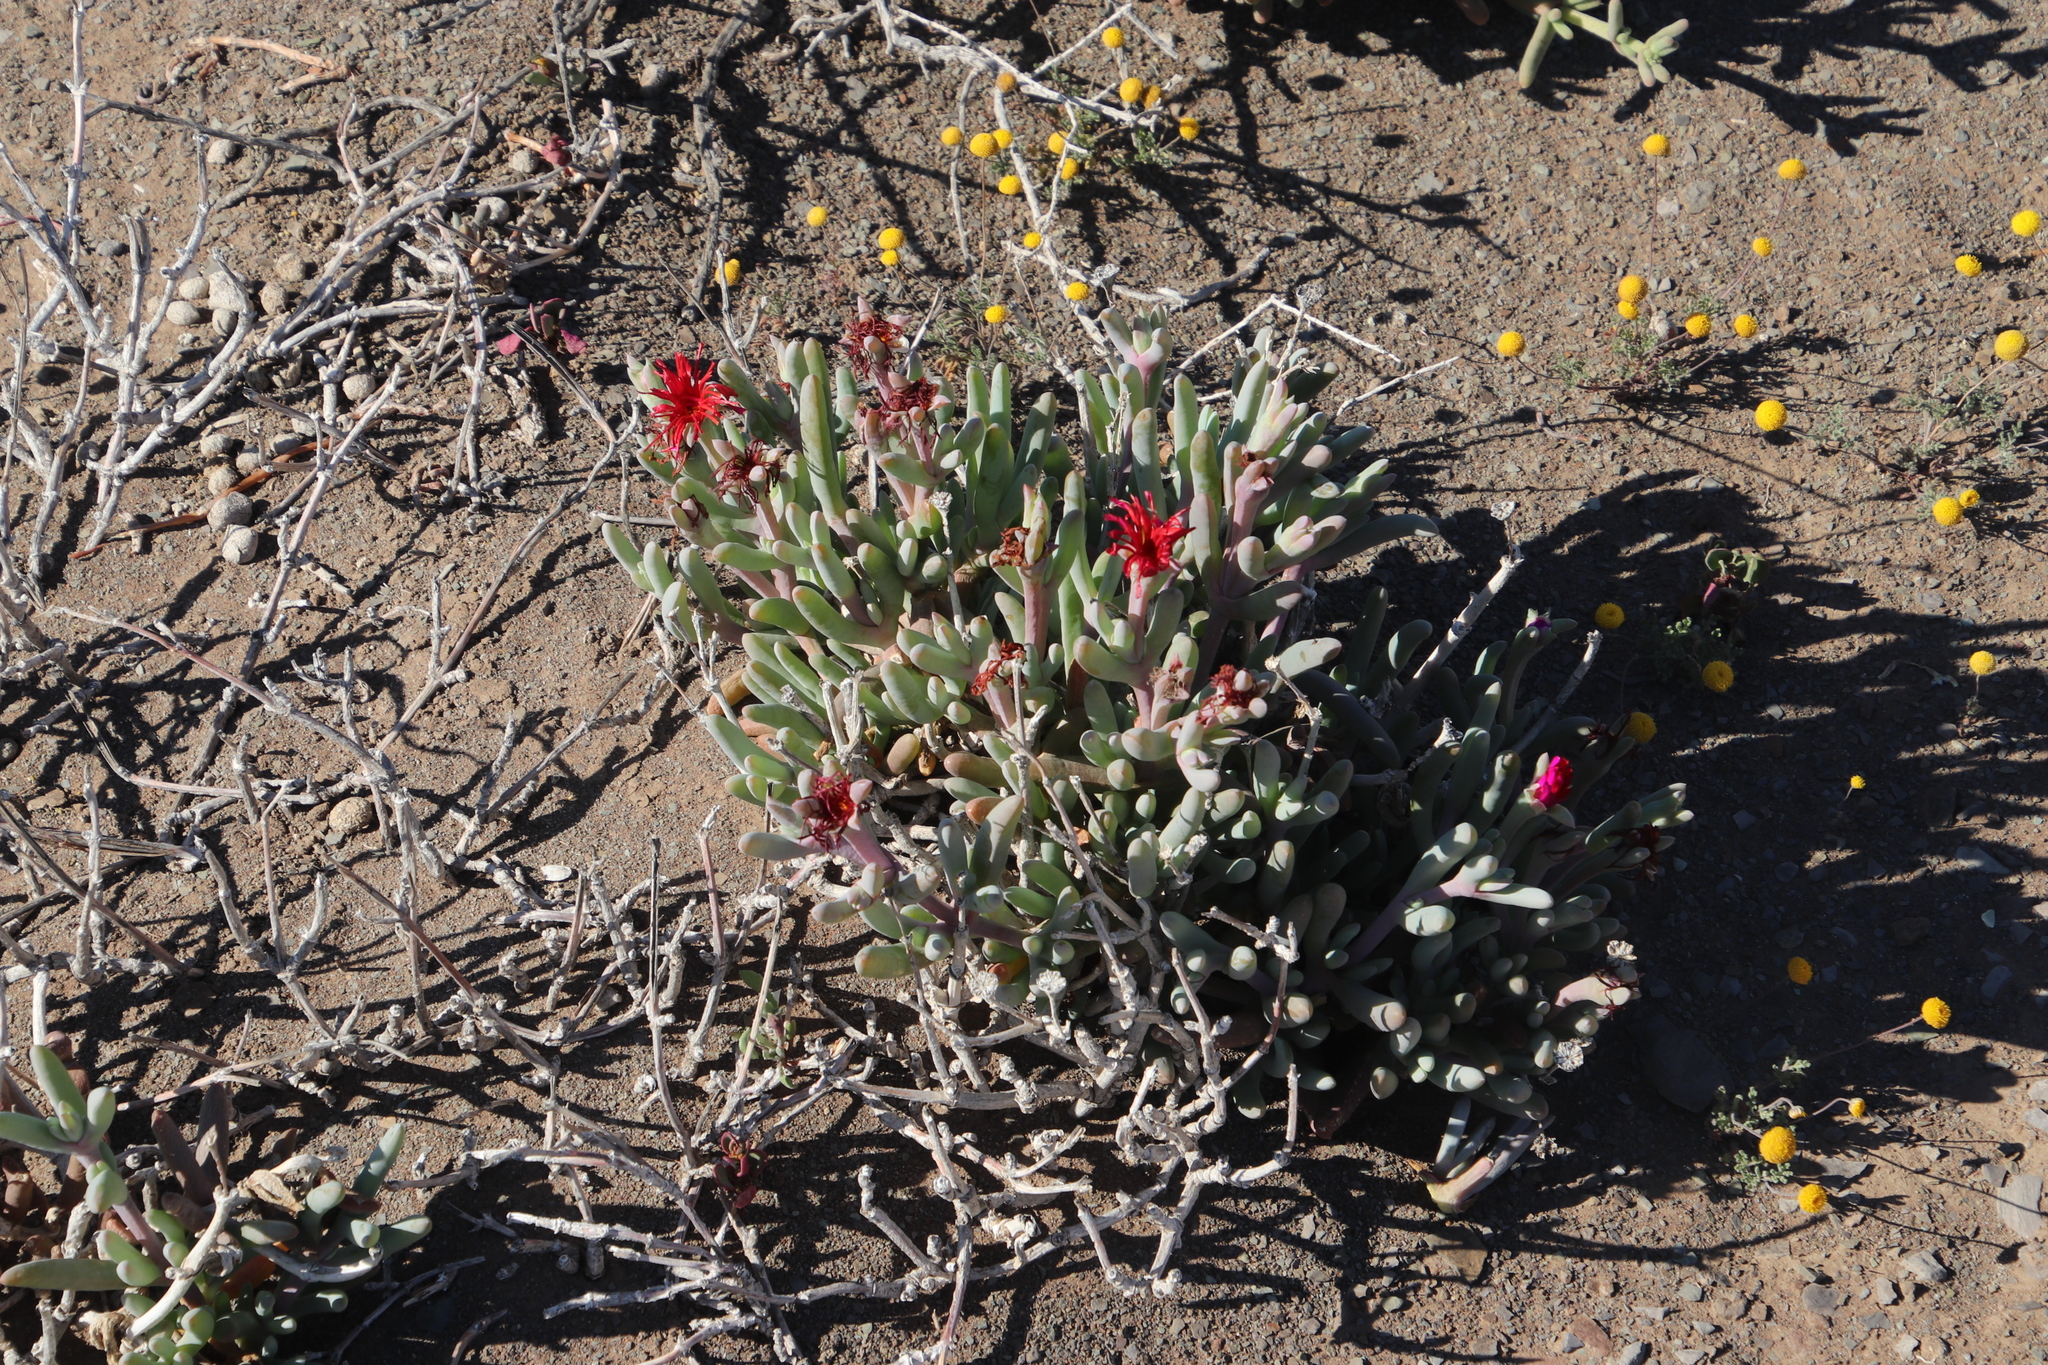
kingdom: Plantae
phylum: Tracheophyta
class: Magnoliopsida
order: Caryophyllales
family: Aizoaceae
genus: Malephora
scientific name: Malephora purpureocrocea
